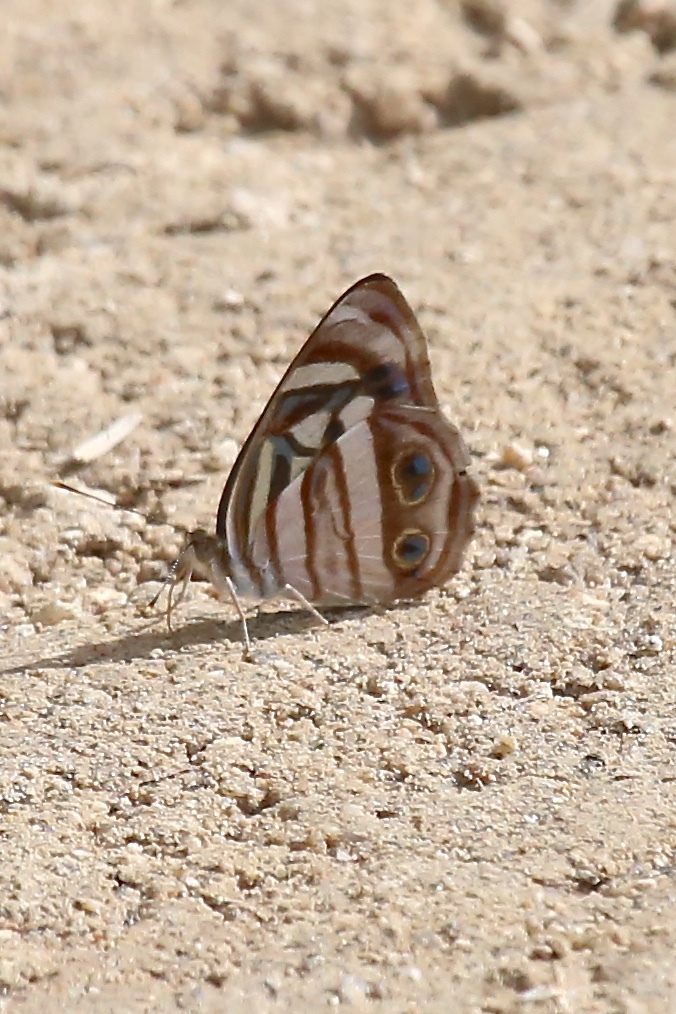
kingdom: Animalia
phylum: Arthropoda
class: Insecta
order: Lepidoptera
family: Nymphalidae
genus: Dynamine
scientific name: Dynamine mylitta
